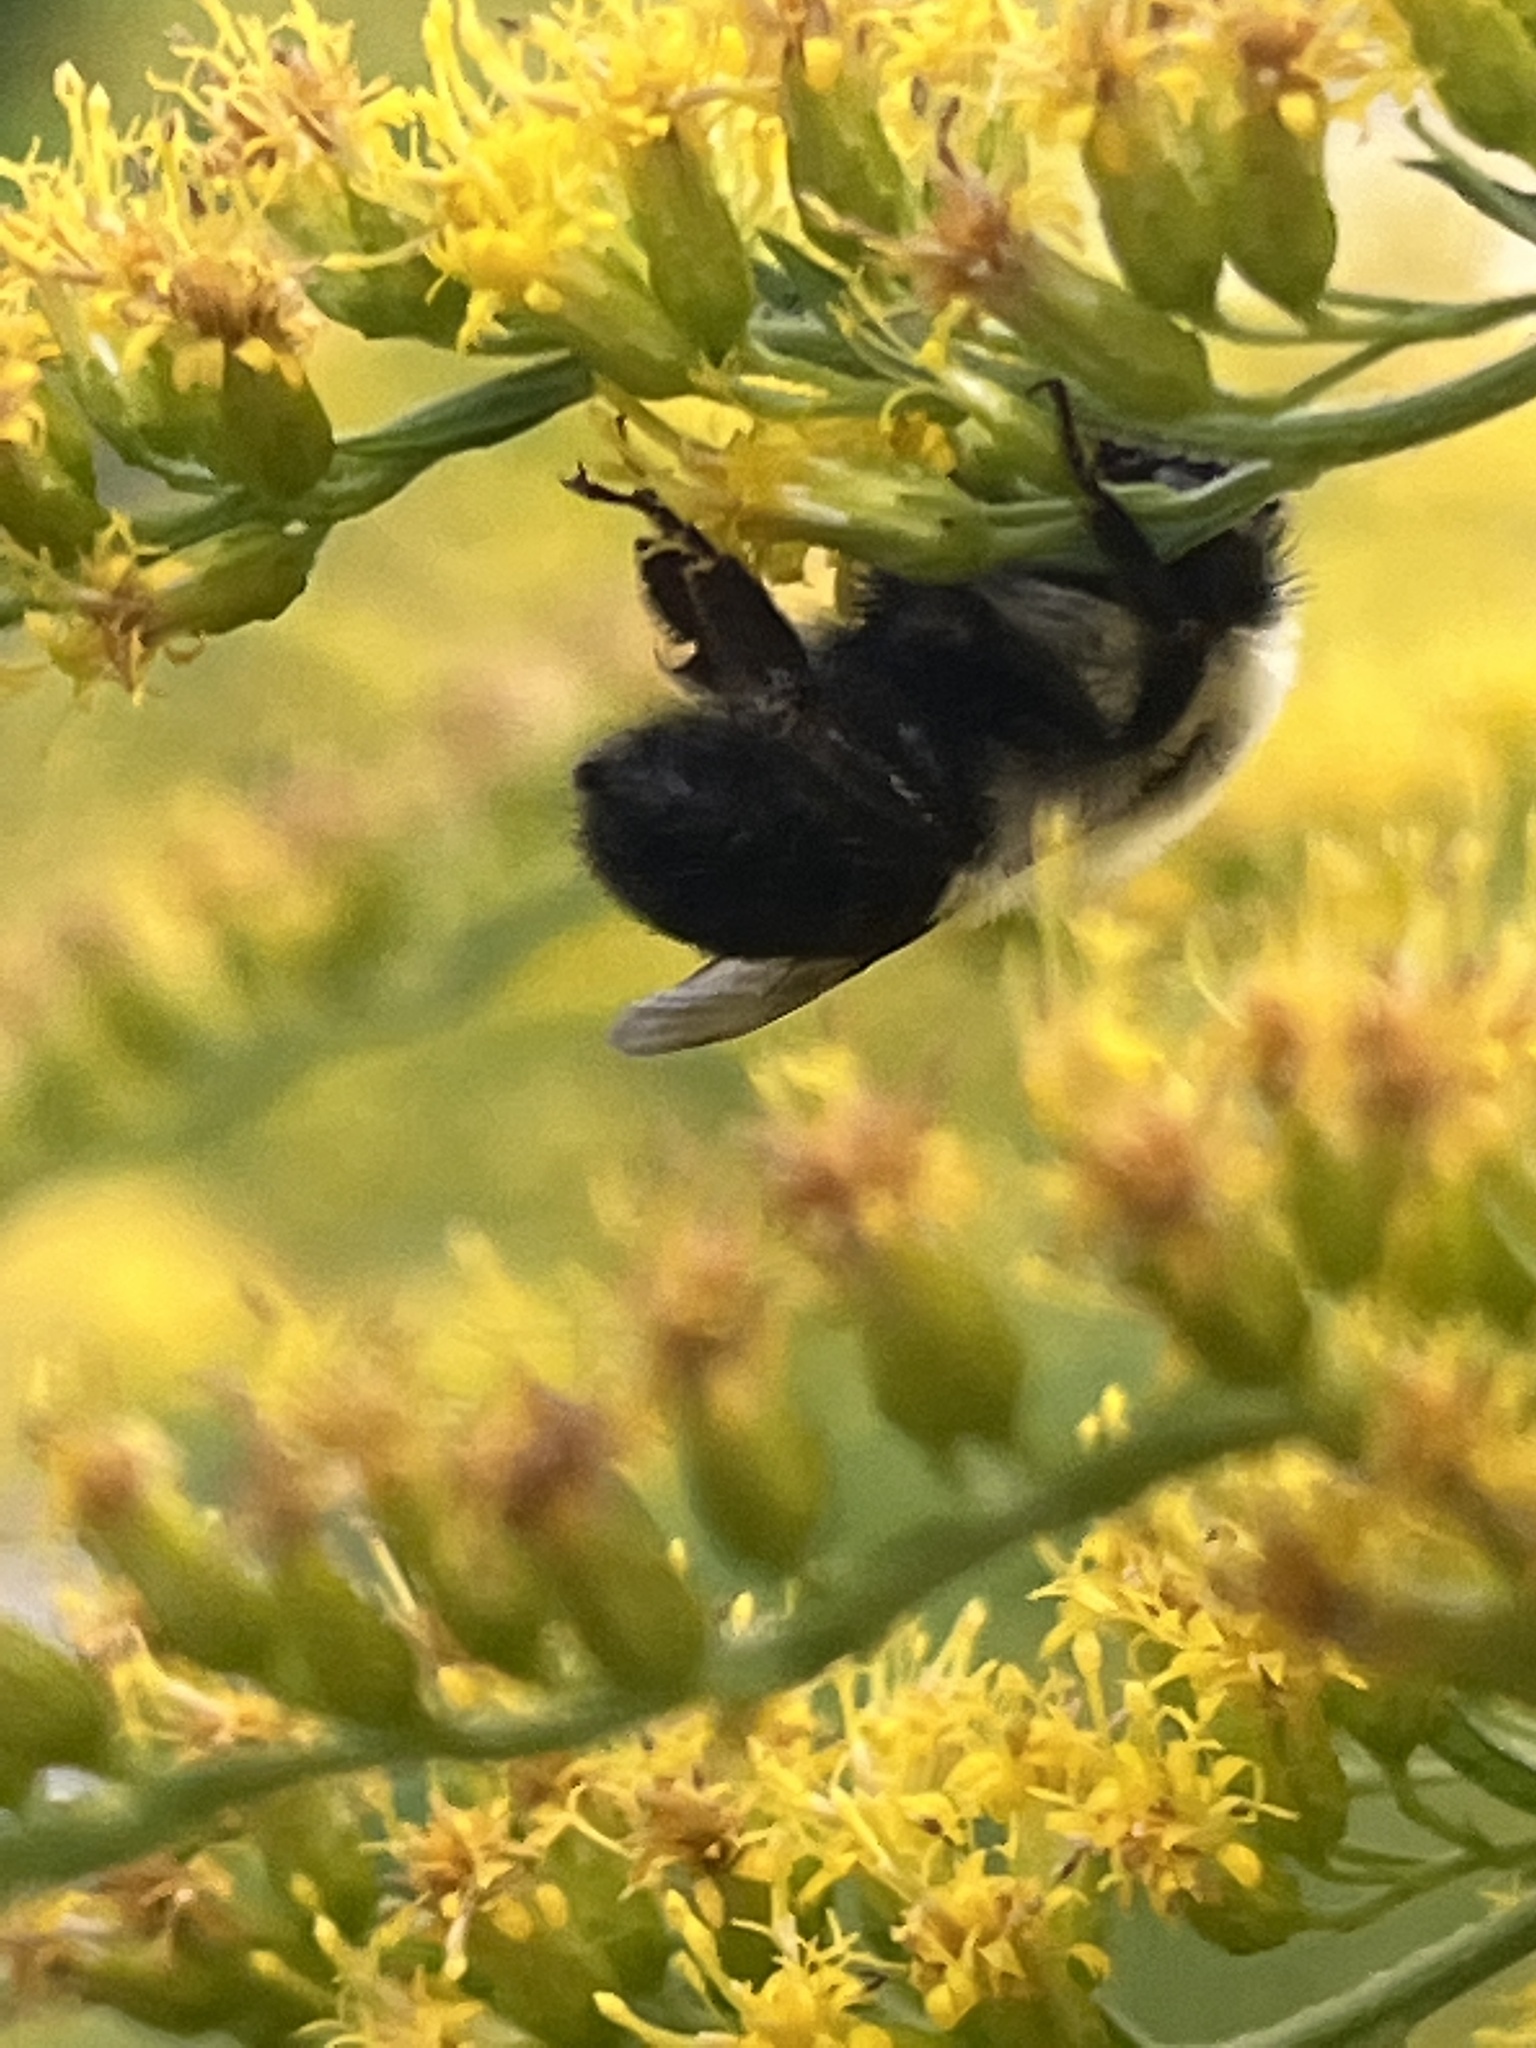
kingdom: Animalia
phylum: Arthropoda
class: Insecta
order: Hymenoptera
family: Apidae
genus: Bombus
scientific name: Bombus impatiens
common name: Common eastern bumble bee
